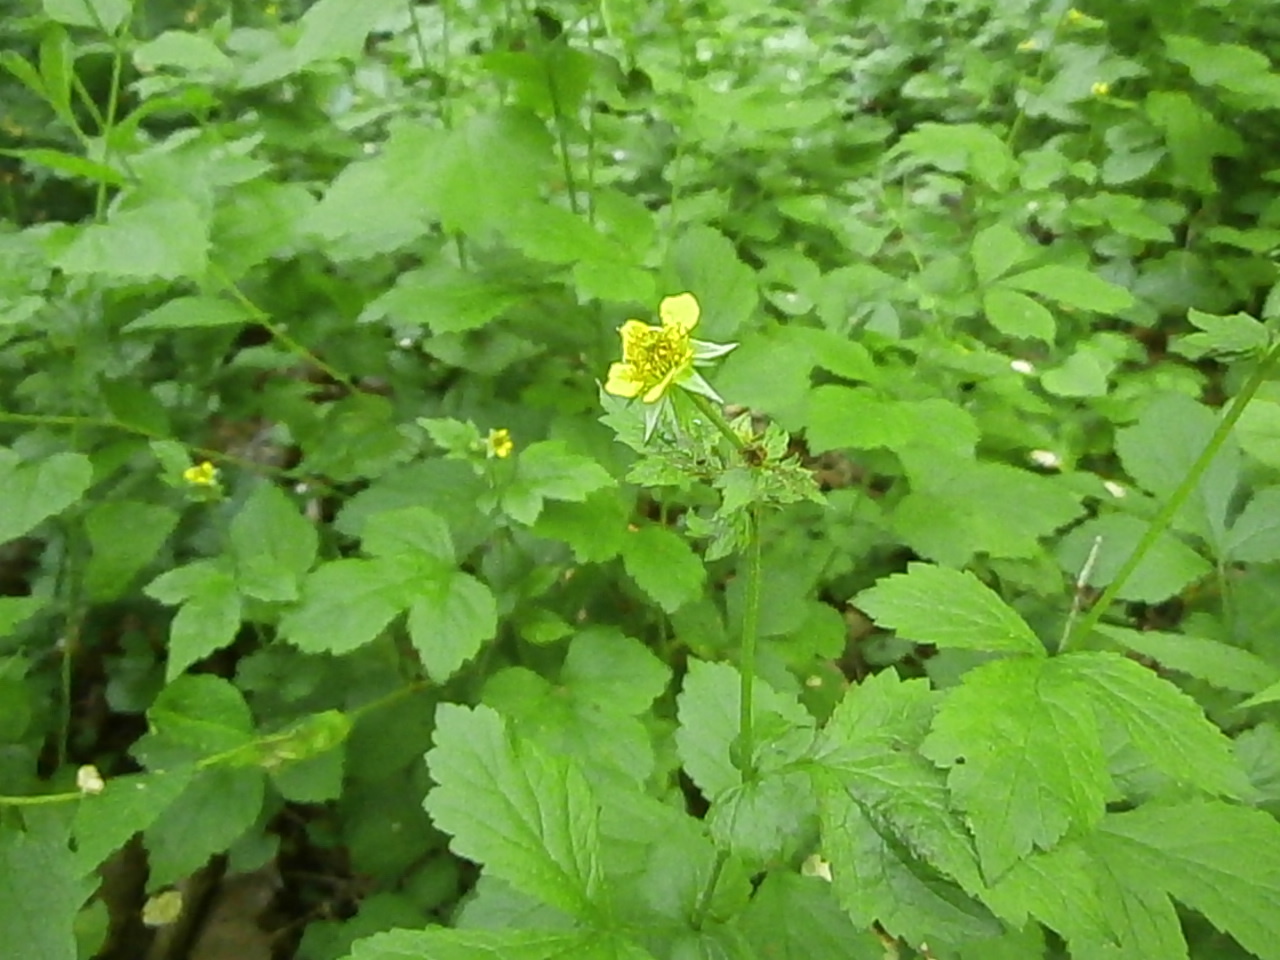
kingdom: Plantae
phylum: Tracheophyta
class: Magnoliopsida
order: Rosales
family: Rosaceae
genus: Geum
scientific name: Geum urbanum
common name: Wood avens
